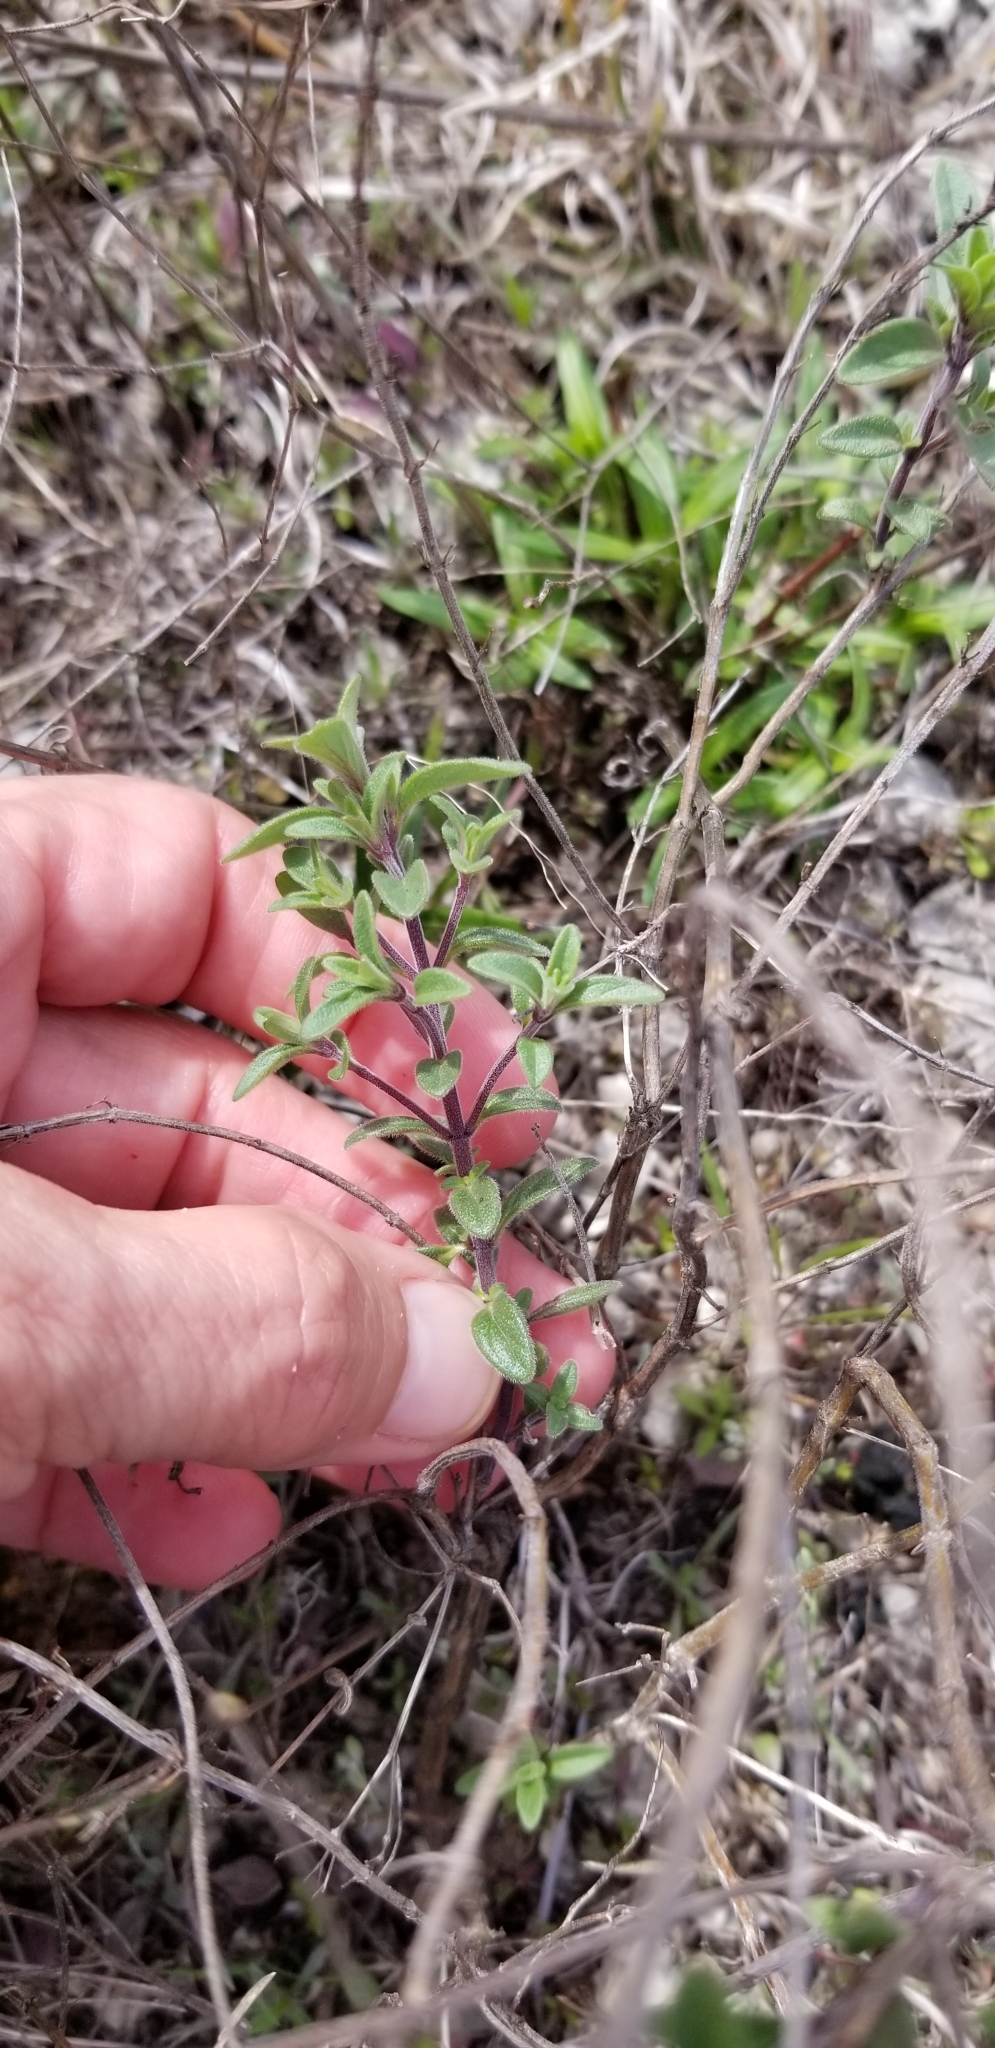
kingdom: Plantae
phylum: Tracheophyta
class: Magnoliopsida
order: Lamiales
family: Lamiaceae
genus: Hedeoma
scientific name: Hedeoma drummondii
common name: New mexico pennyroyal
